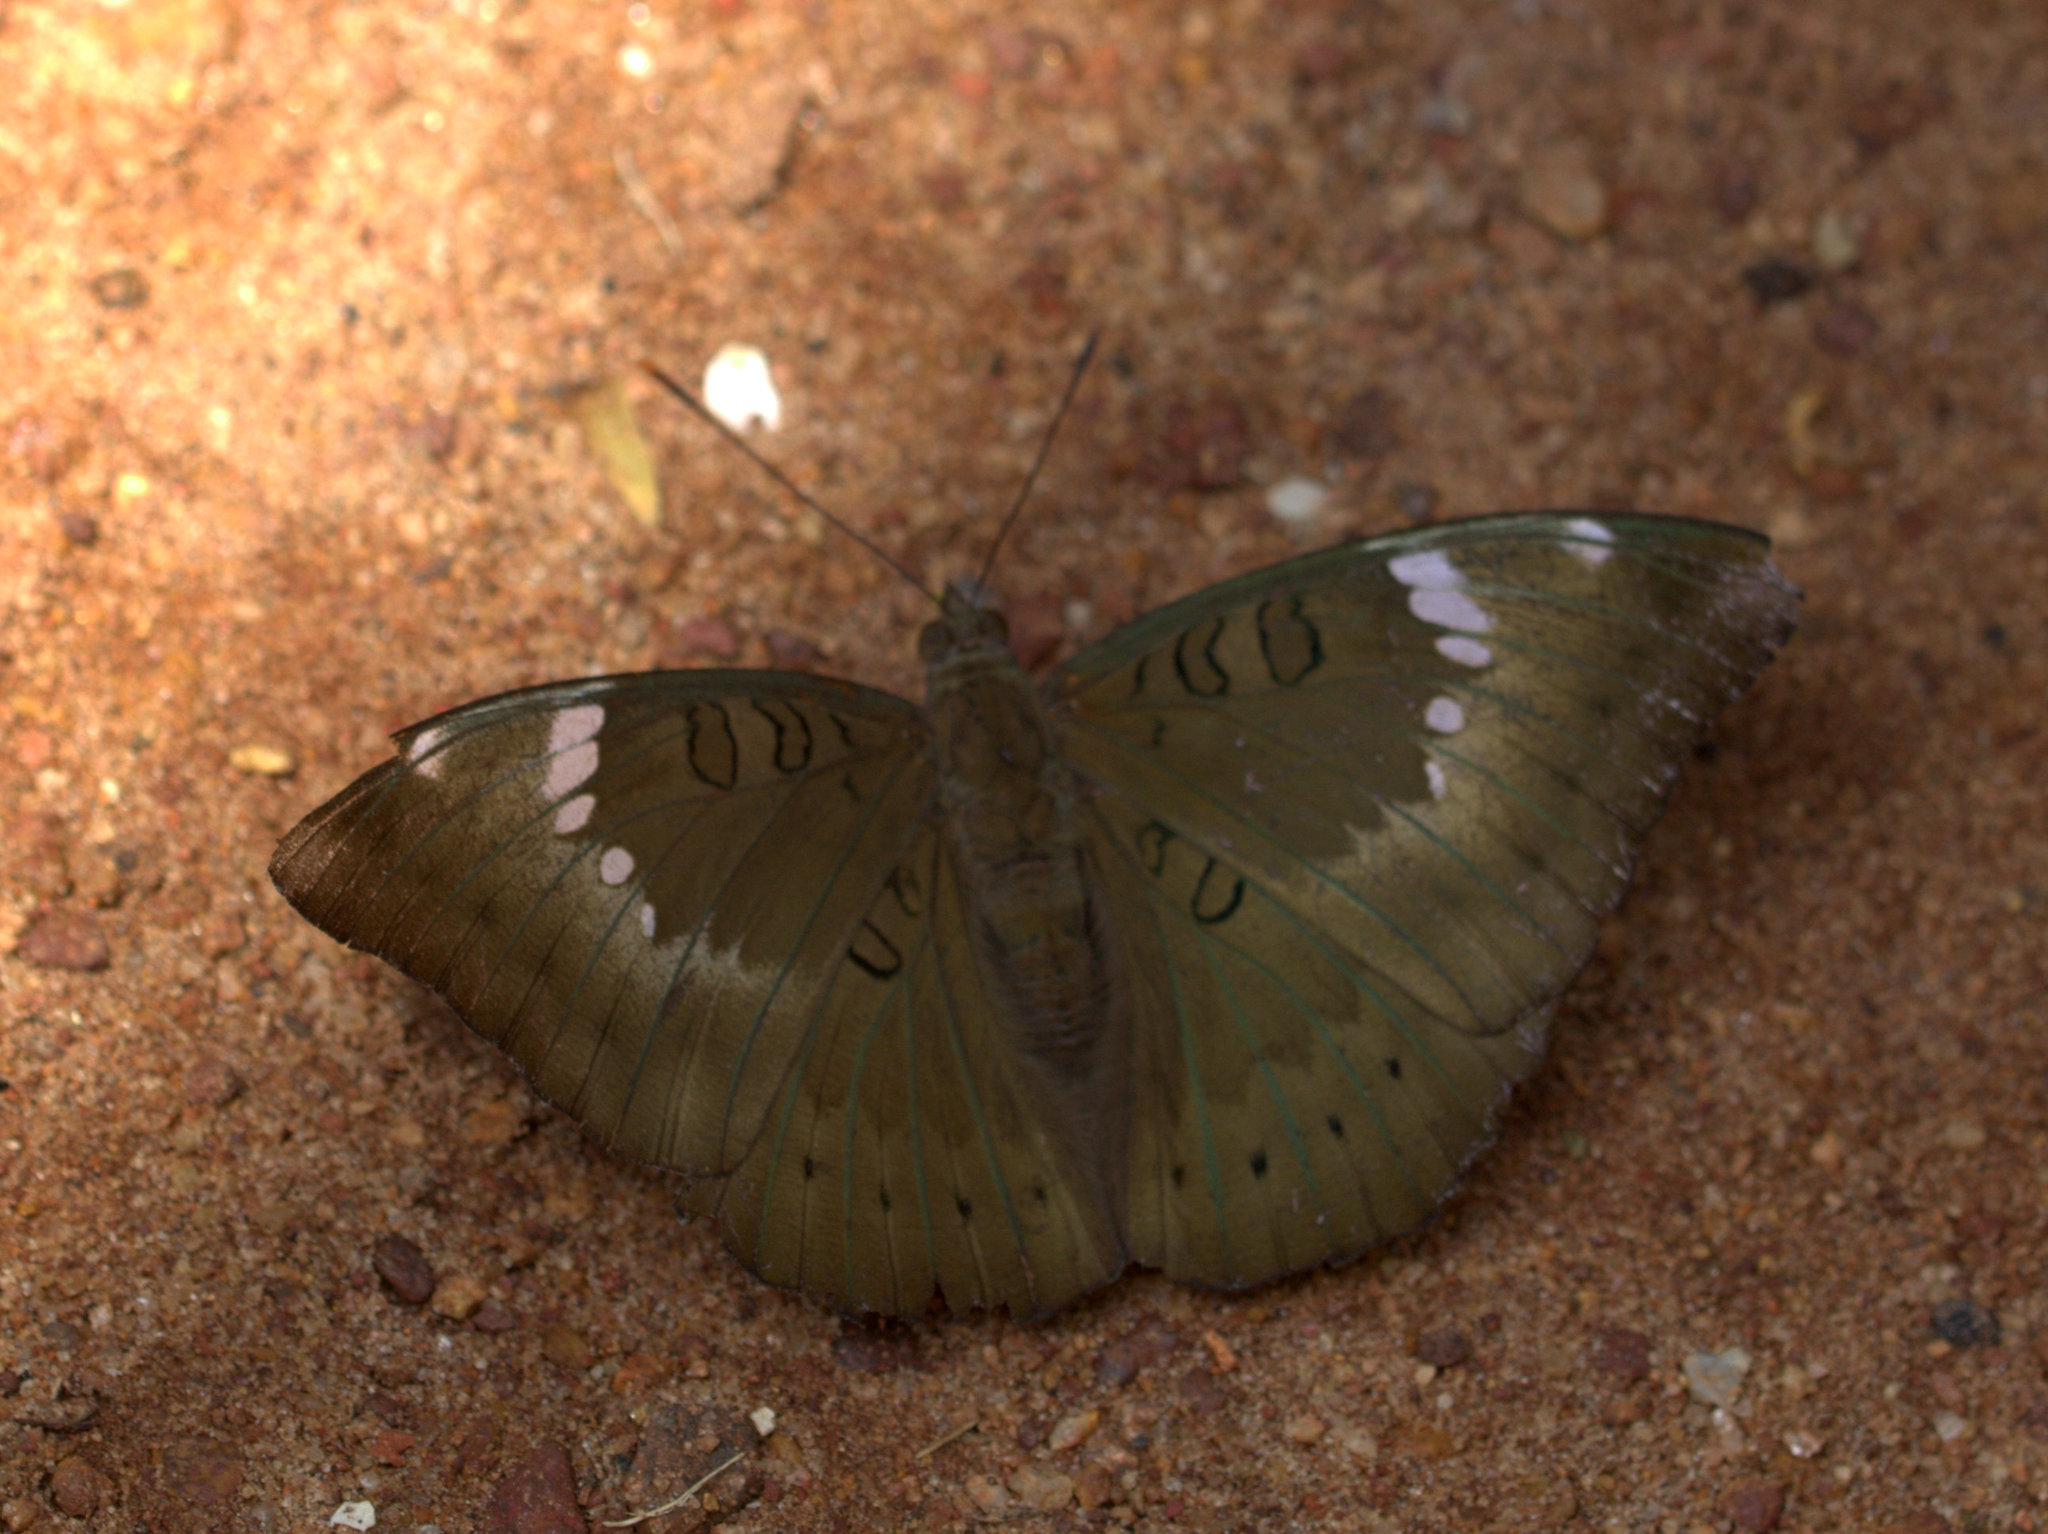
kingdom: Animalia
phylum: Arthropoda
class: Insecta
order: Lepidoptera
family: Nymphalidae
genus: Euthalia
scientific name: Euthalia aconthea
